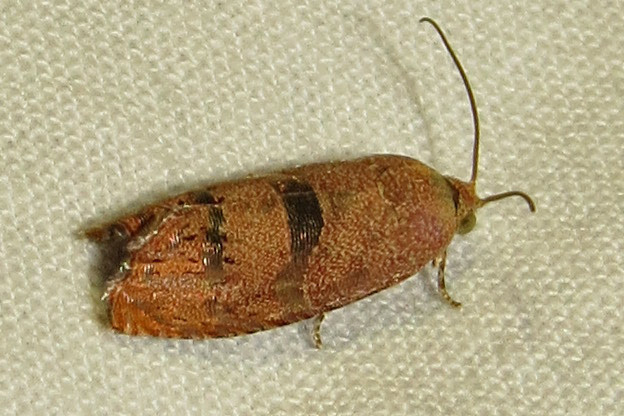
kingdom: Animalia
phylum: Arthropoda
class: Insecta
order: Lepidoptera
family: Tortricidae
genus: Cydia
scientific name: Cydia latiferreana
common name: Filbertworm moth
